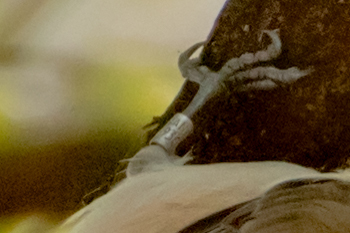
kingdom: Animalia
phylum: Chordata
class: Aves
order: Passeriformes
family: Paridae
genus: Poecile
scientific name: Poecile palustris
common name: Marsh tit
